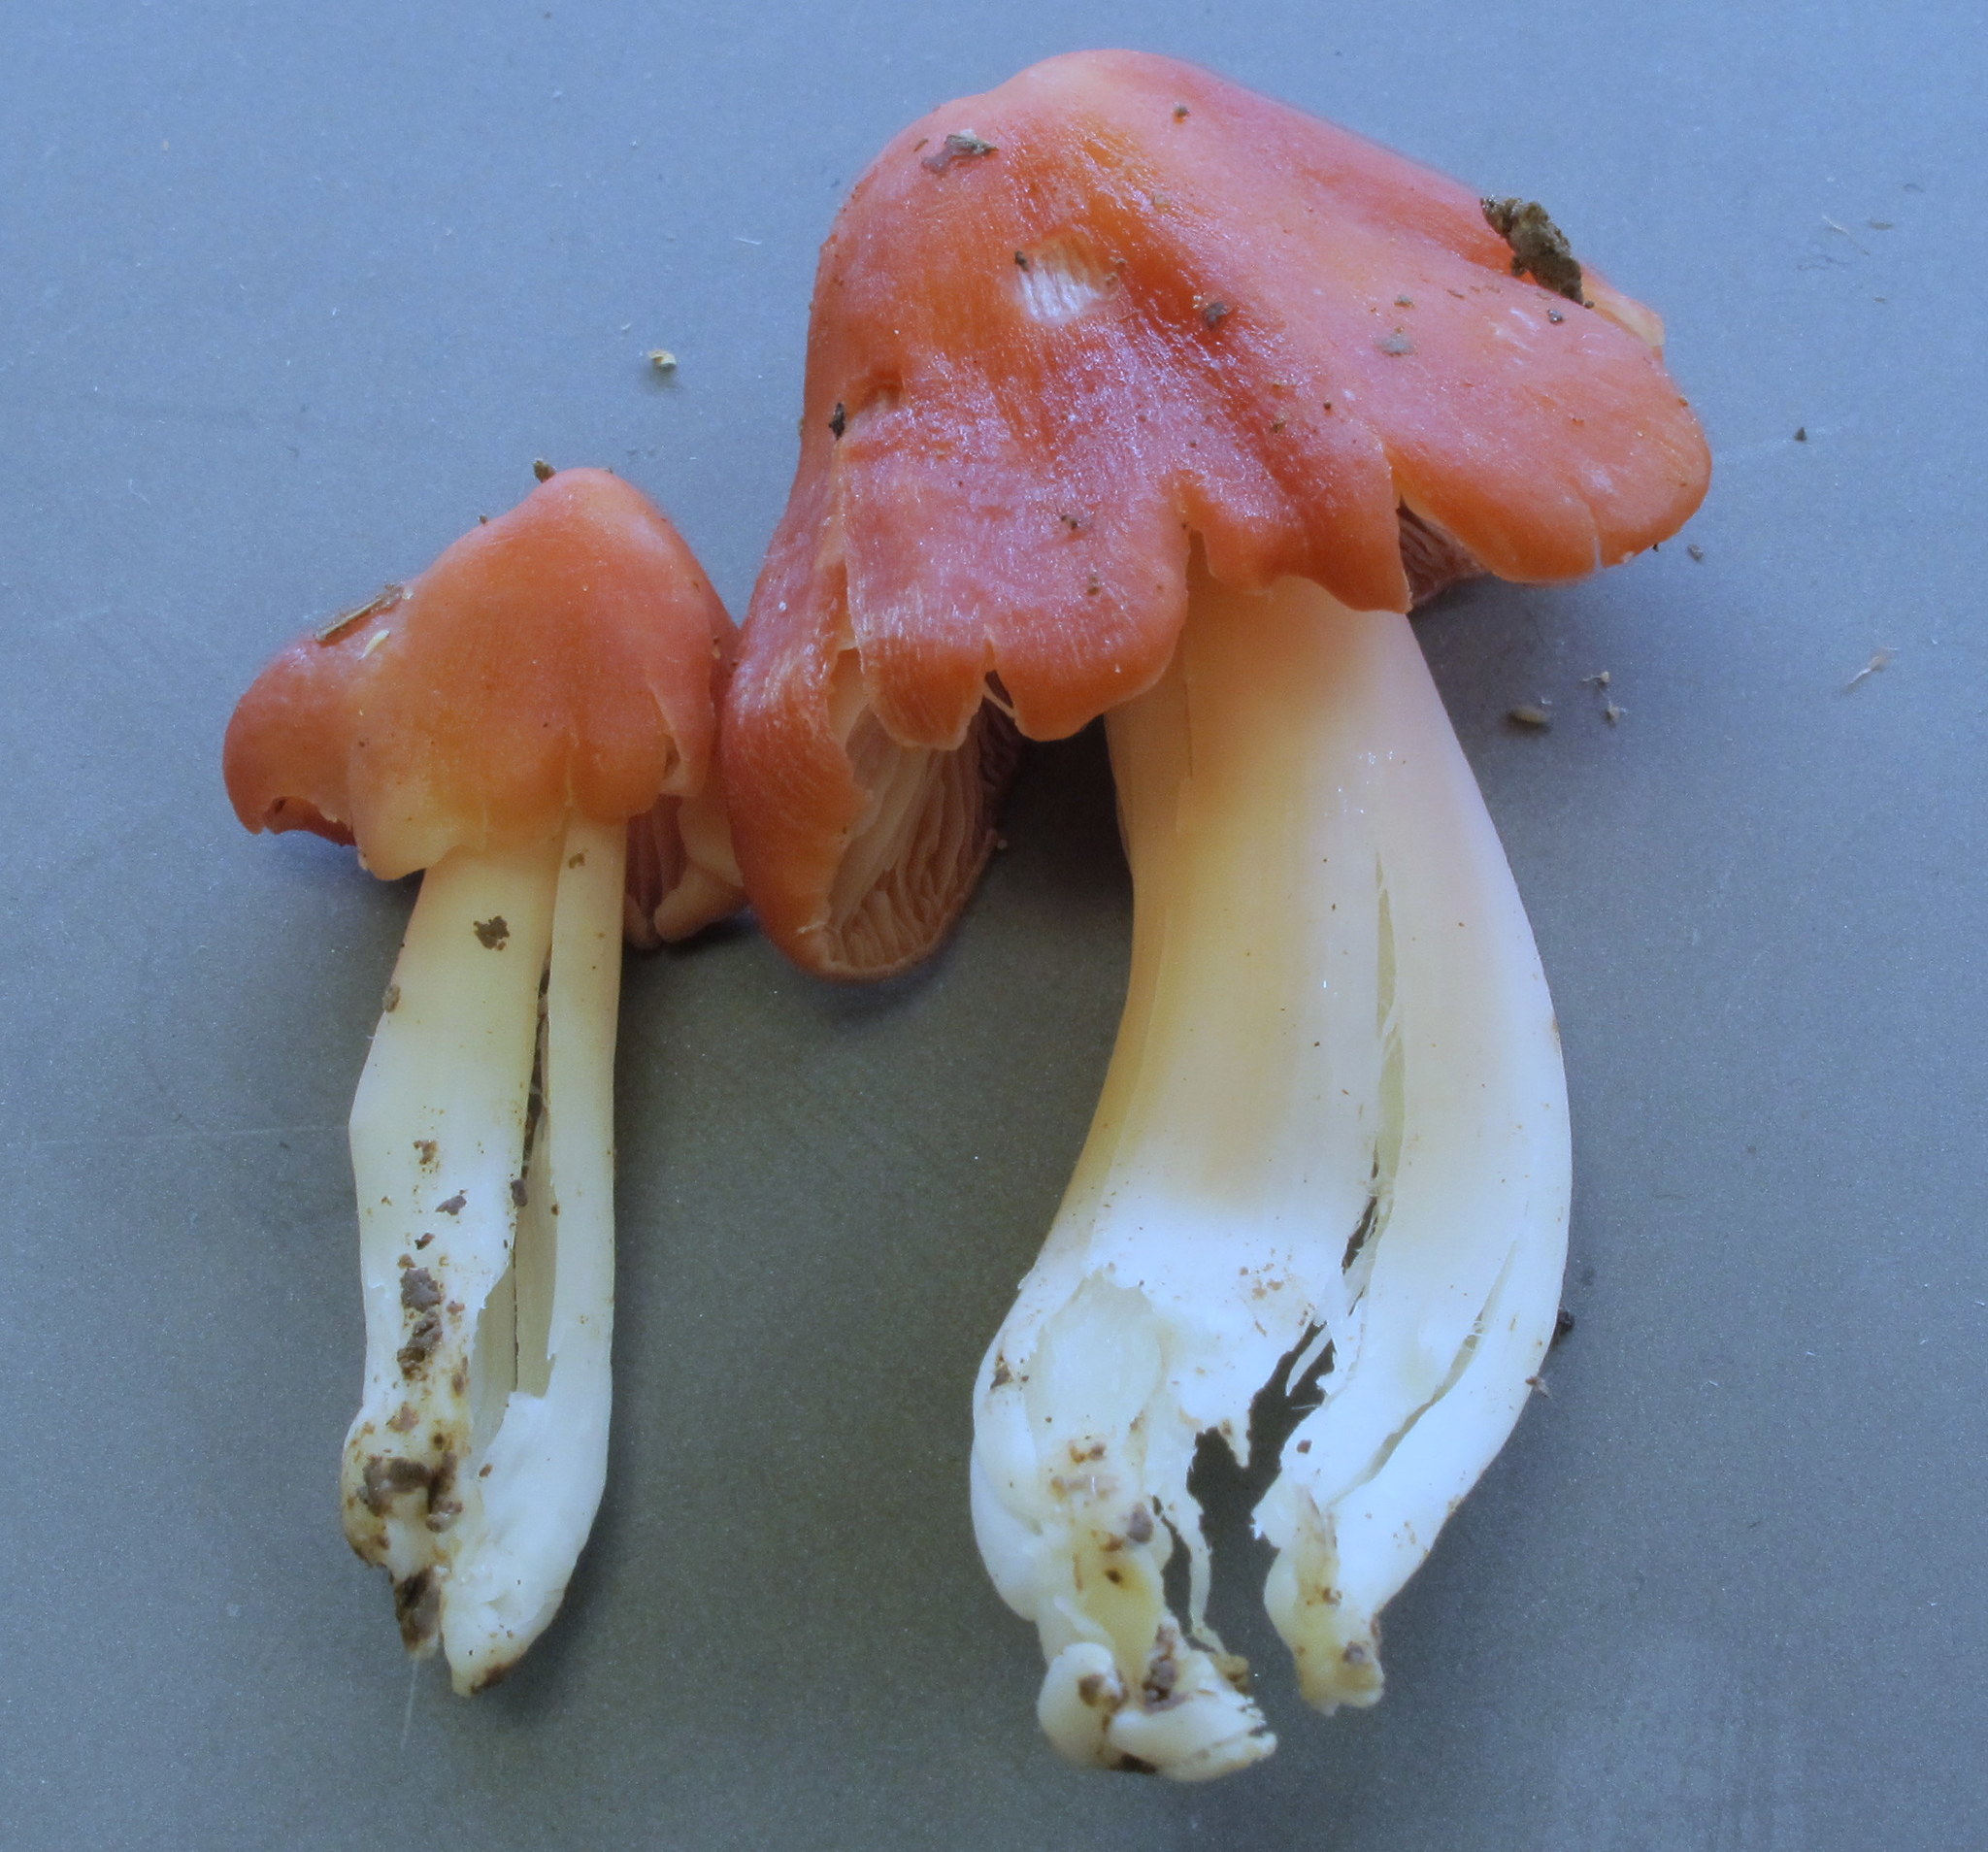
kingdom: Fungi
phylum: Basidiomycota
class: Agaricomycetes
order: Agaricales
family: Hygrophoraceae
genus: Porpolomopsis
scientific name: Porpolomopsis calyptriformis
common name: Pink waxcap
